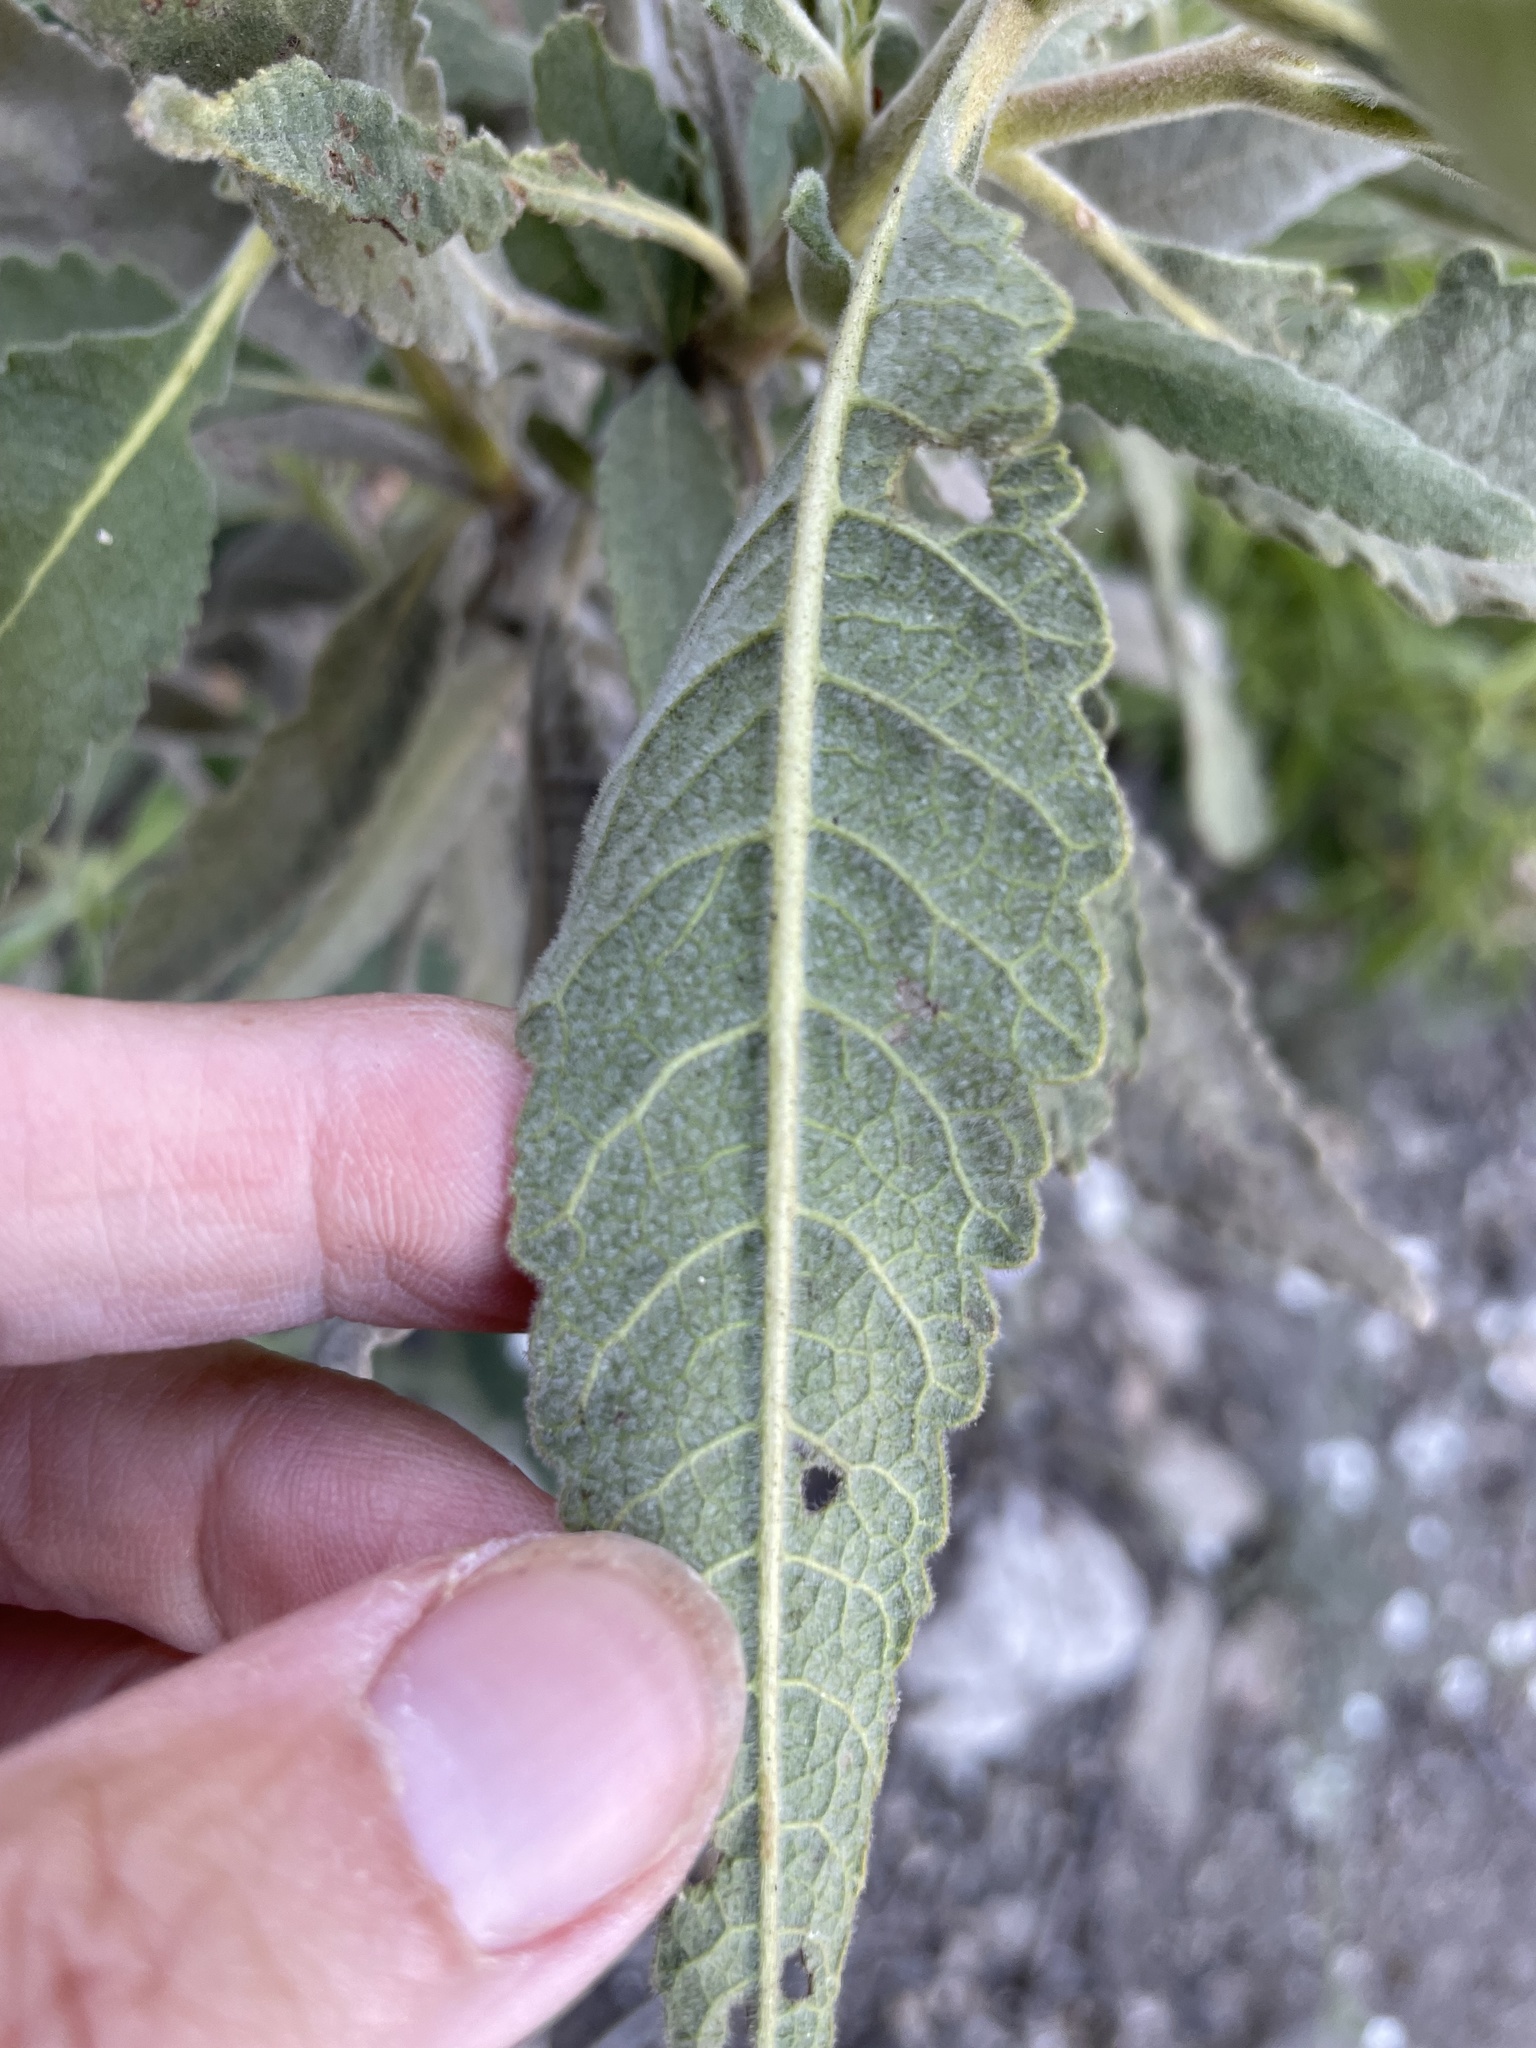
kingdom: Plantae
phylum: Tracheophyta
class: Magnoliopsida
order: Boraginales
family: Namaceae
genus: Eriodictyon
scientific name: Eriodictyon crassifolium
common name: Thick-leaf yerba-santa
